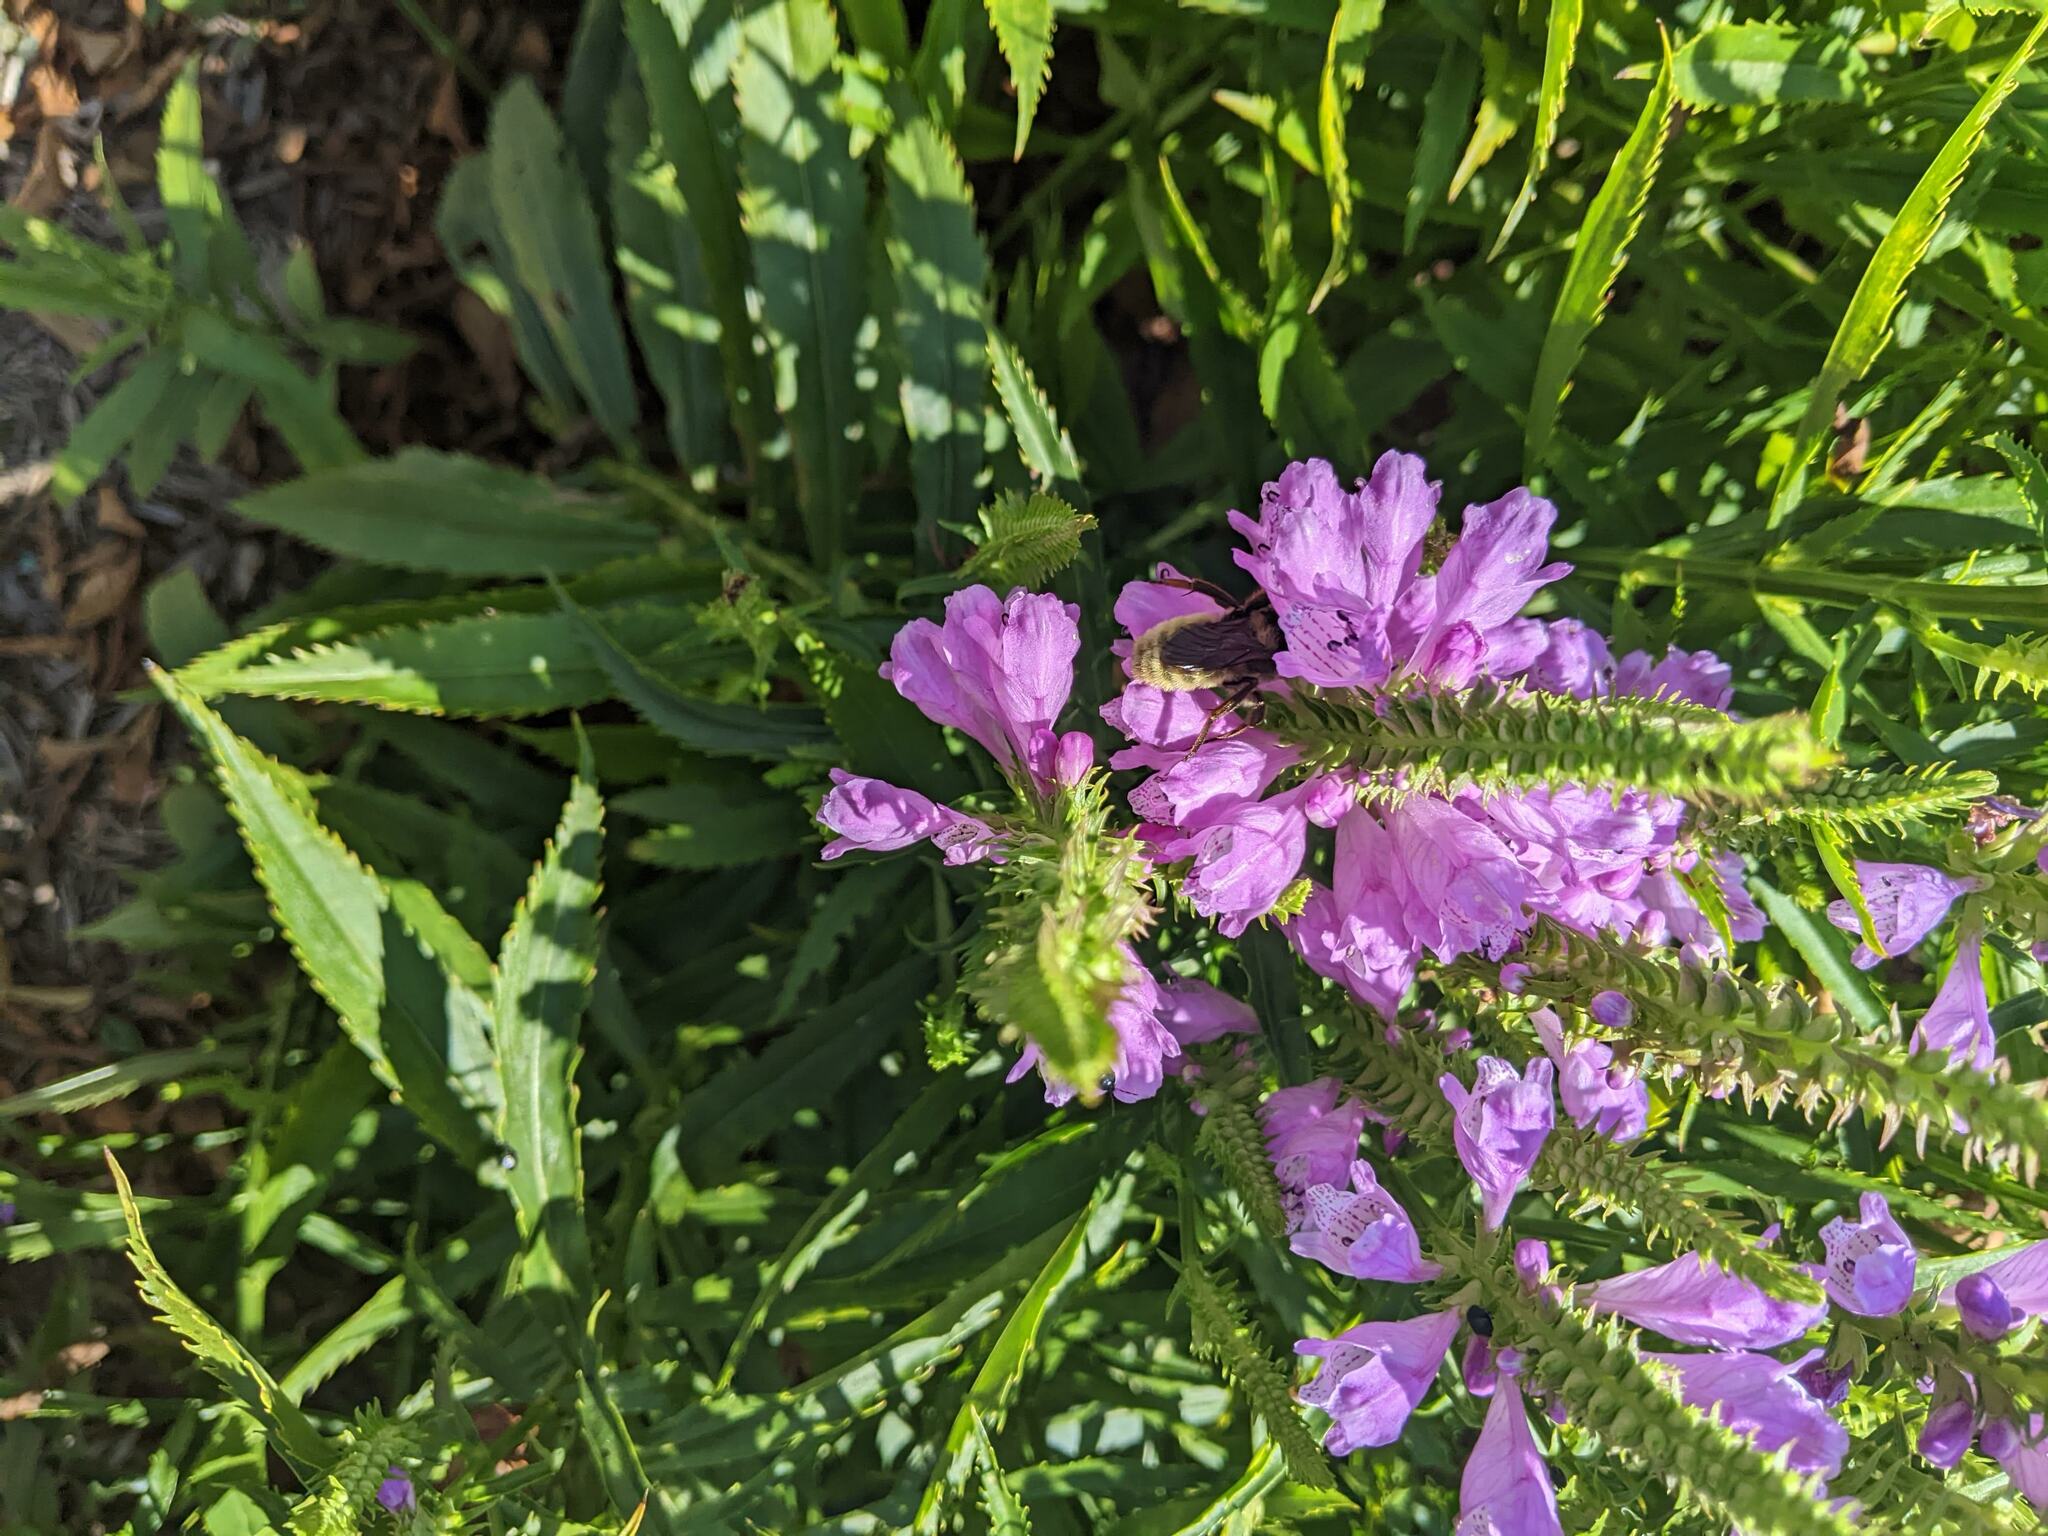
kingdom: Plantae
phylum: Tracheophyta
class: Magnoliopsida
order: Lamiales
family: Lamiaceae
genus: Physostegia
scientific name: Physostegia virginiana
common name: Obedient-plant
